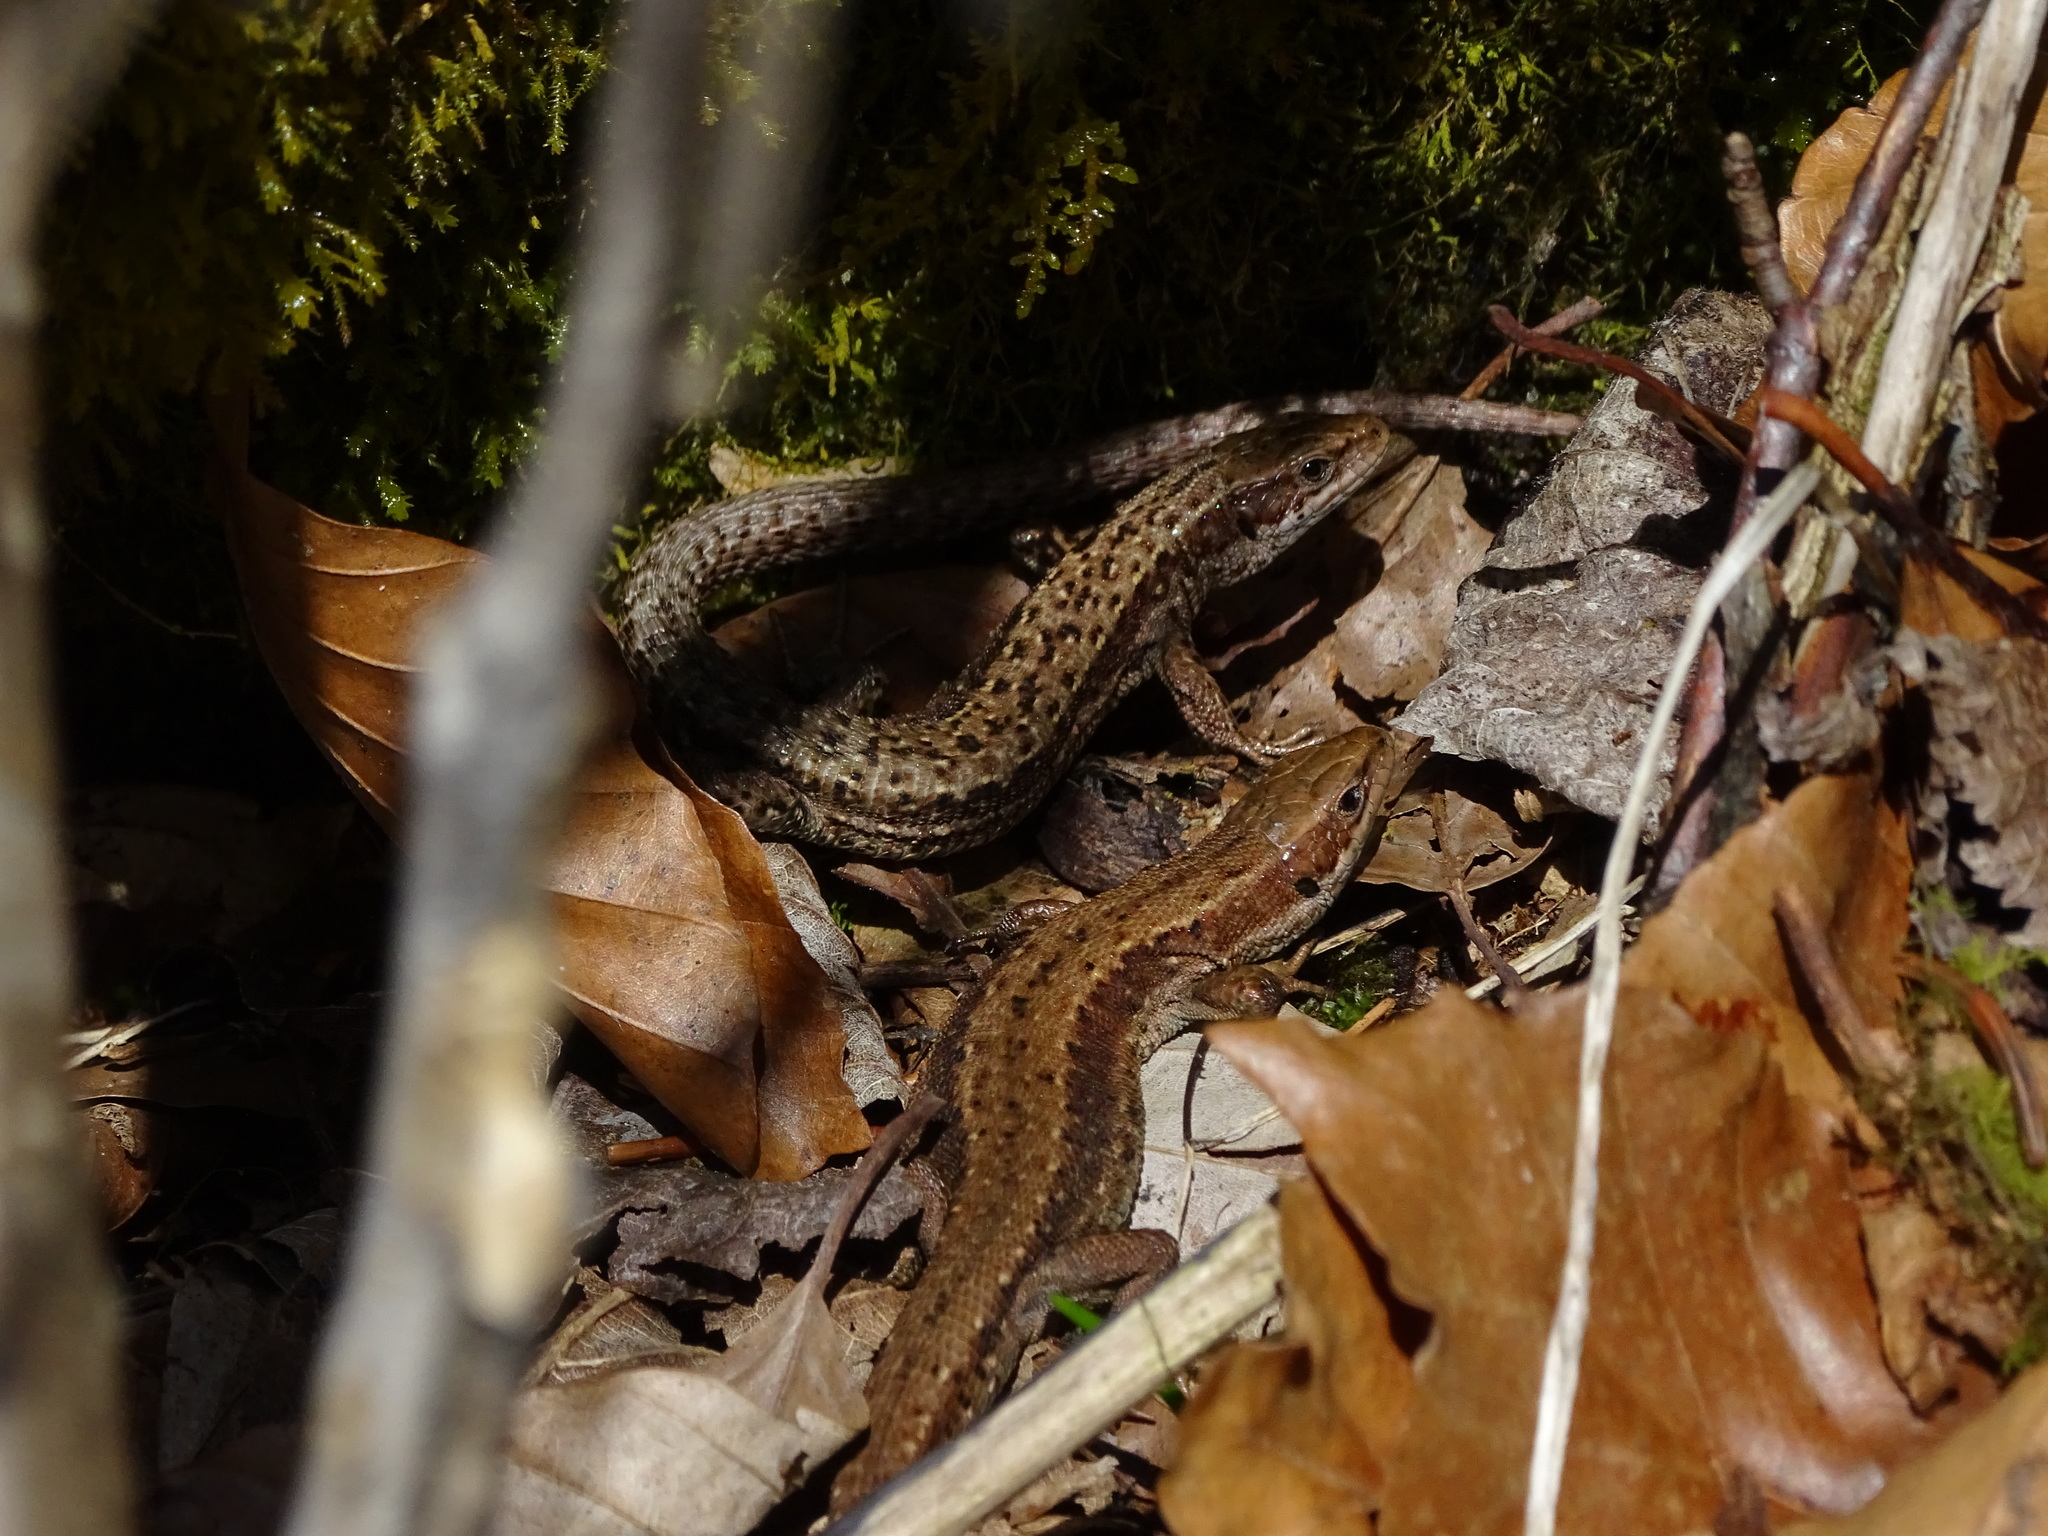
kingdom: Animalia
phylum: Chordata
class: Squamata
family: Lacertidae
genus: Zootoca
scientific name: Zootoca vivipara
